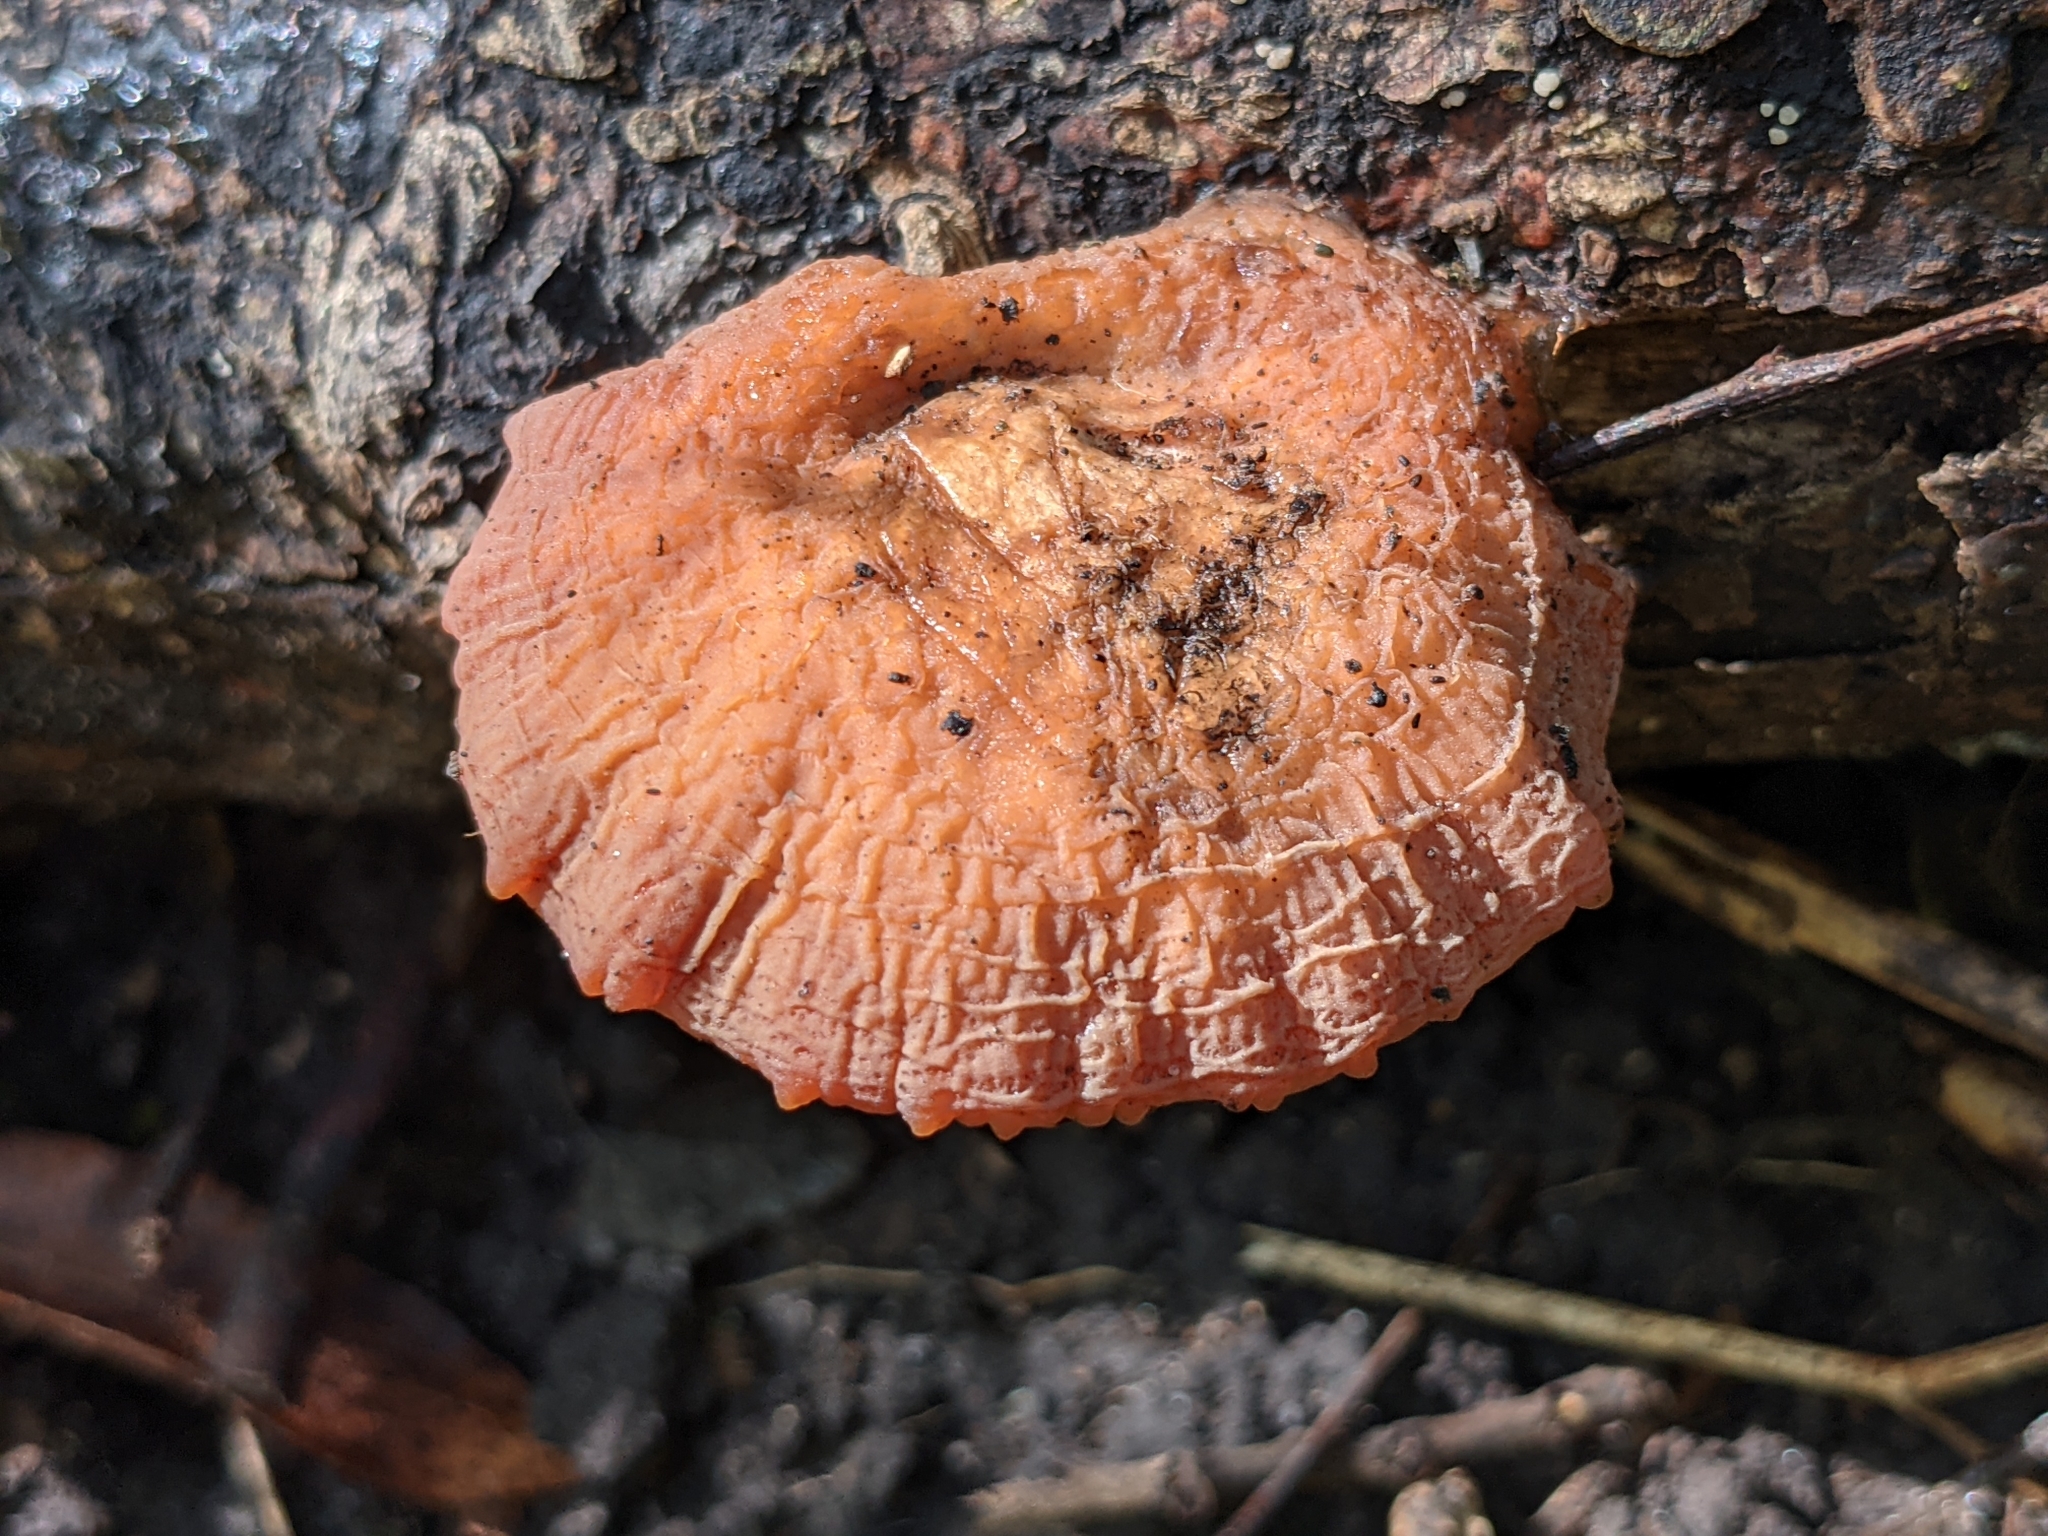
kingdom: Fungi
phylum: Basidiomycota
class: Agaricomycetes
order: Agaricales
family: Physalacriaceae
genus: Rhodotus
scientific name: Rhodotus palmatus
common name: Wrinkled peach
